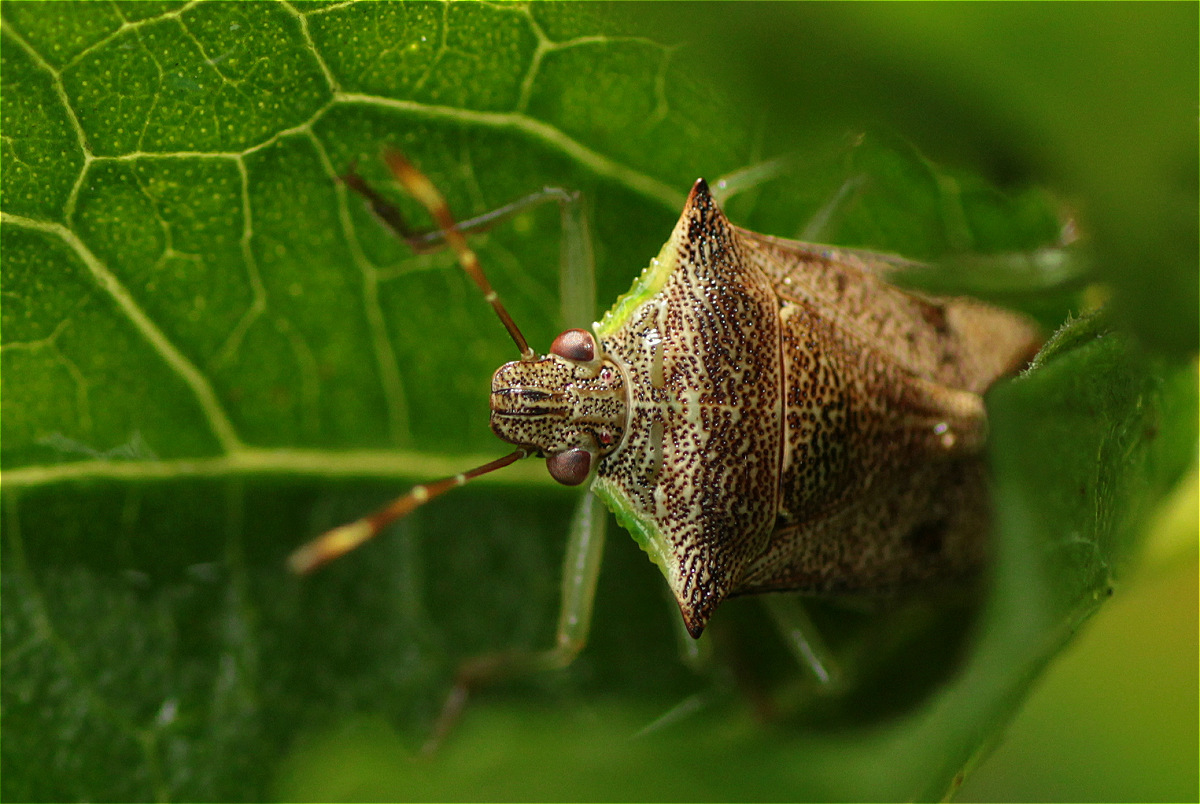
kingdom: Animalia
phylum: Arthropoda
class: Insecta
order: Hemiptera
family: Pentatomidae
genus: Podisus
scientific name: Podisus
